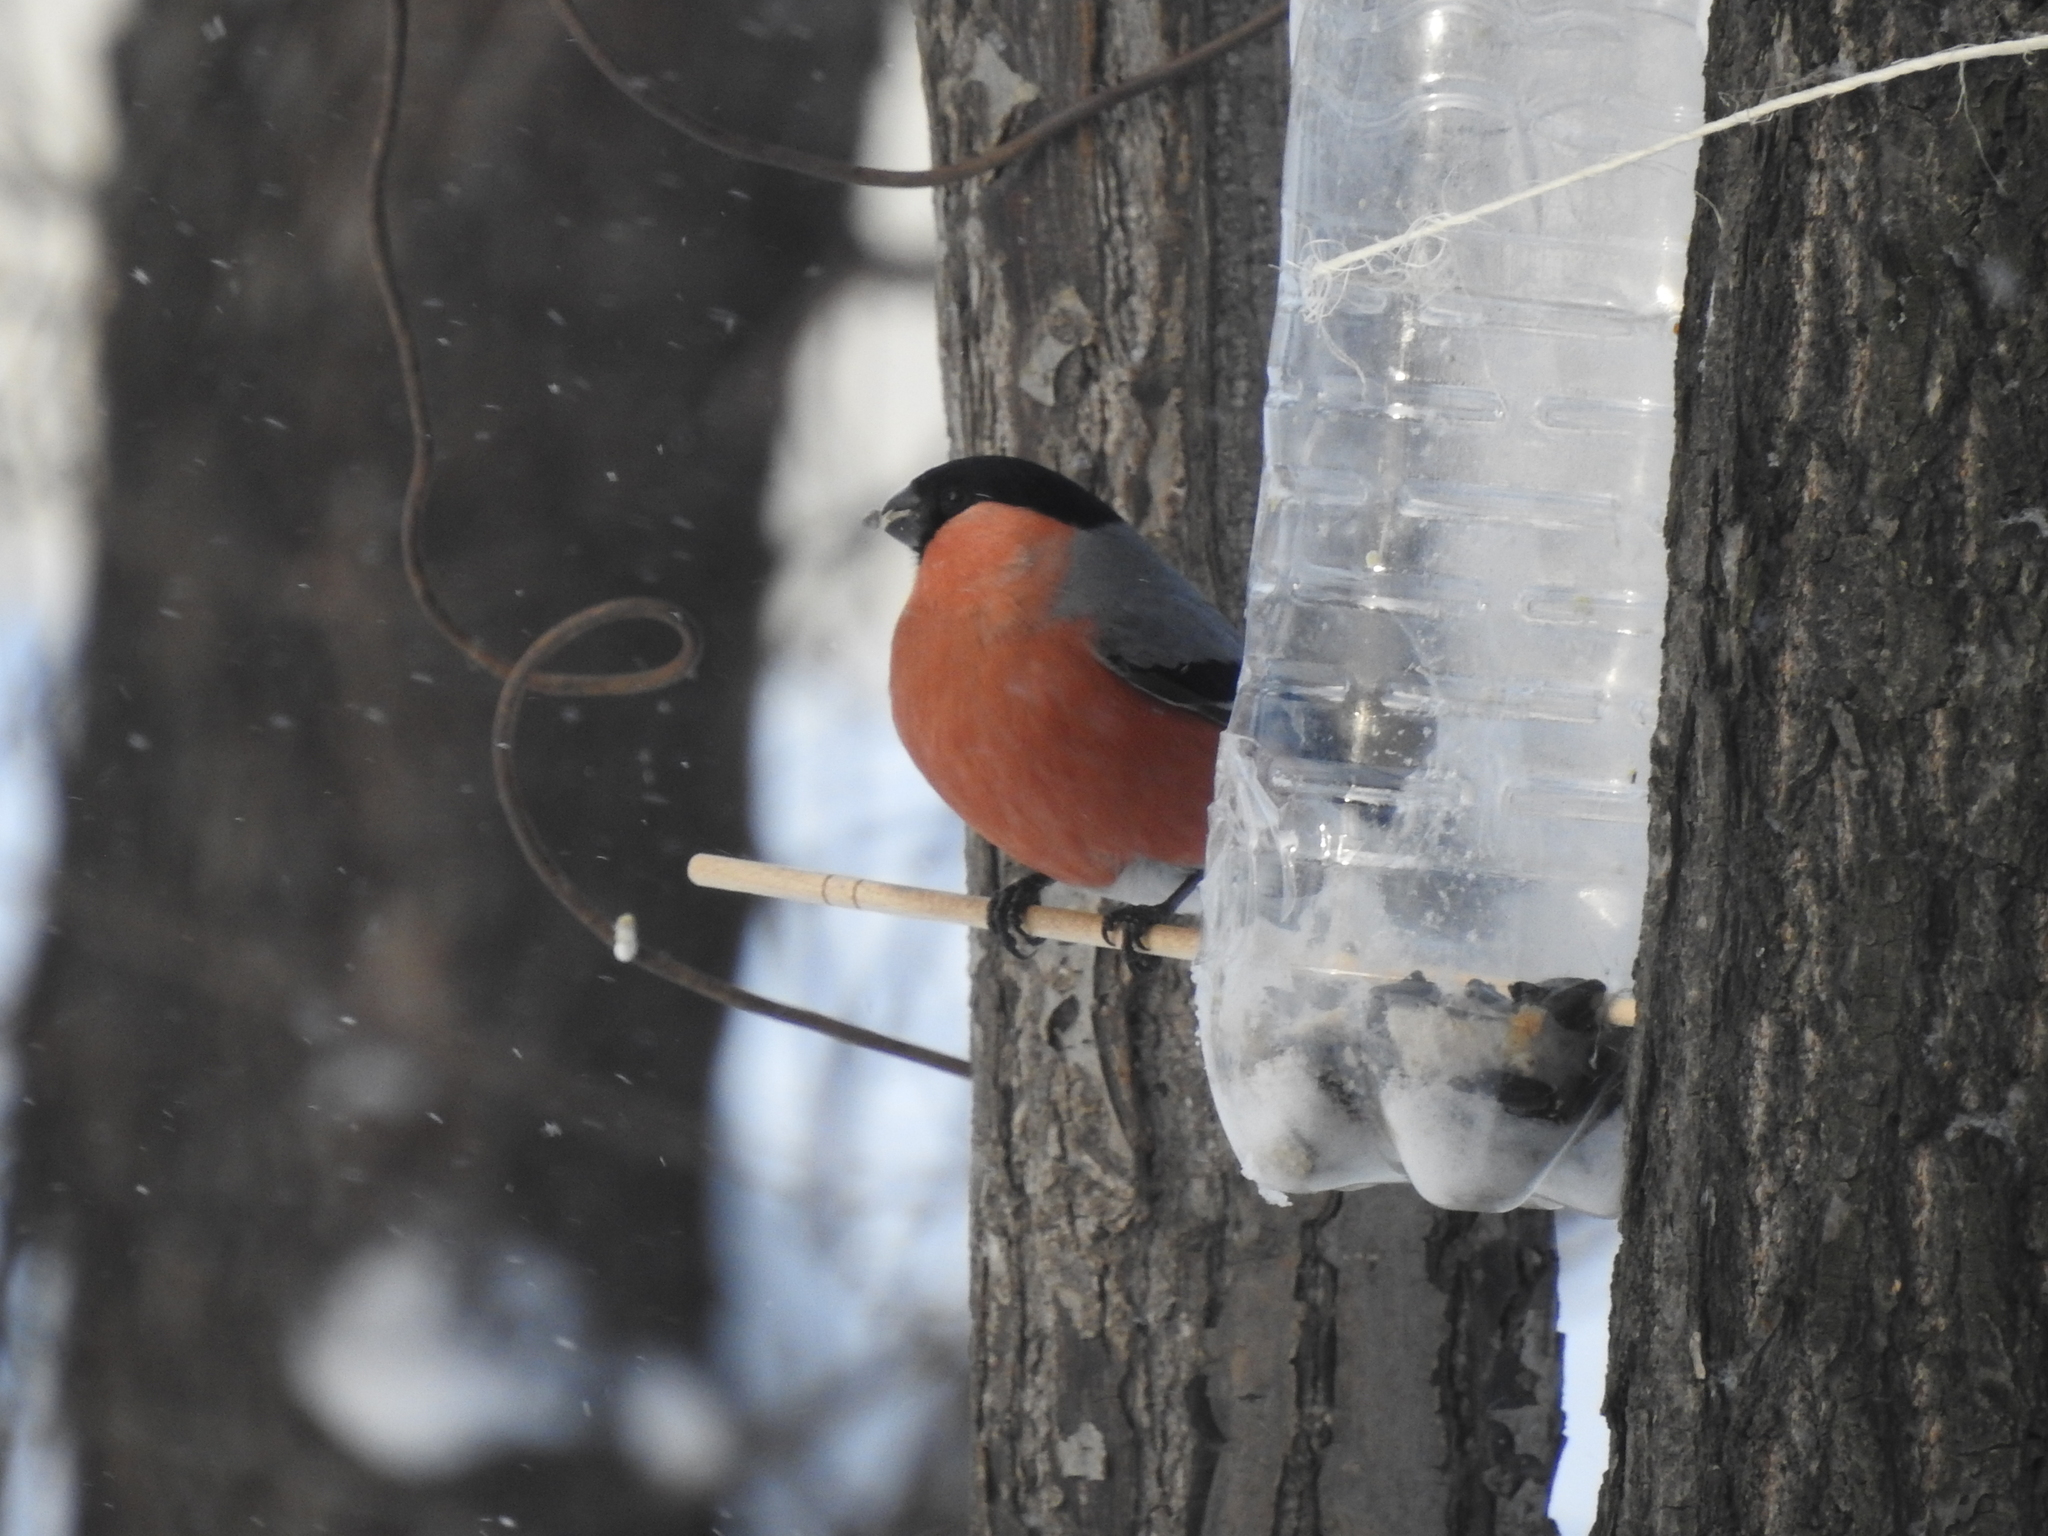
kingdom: Animalia
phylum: Chordata
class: Aves
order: Passeriformes
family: Fringillidae
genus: Pyrrhula
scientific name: Pyrrhula pyrrhula
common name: Eurasian bullfinch
